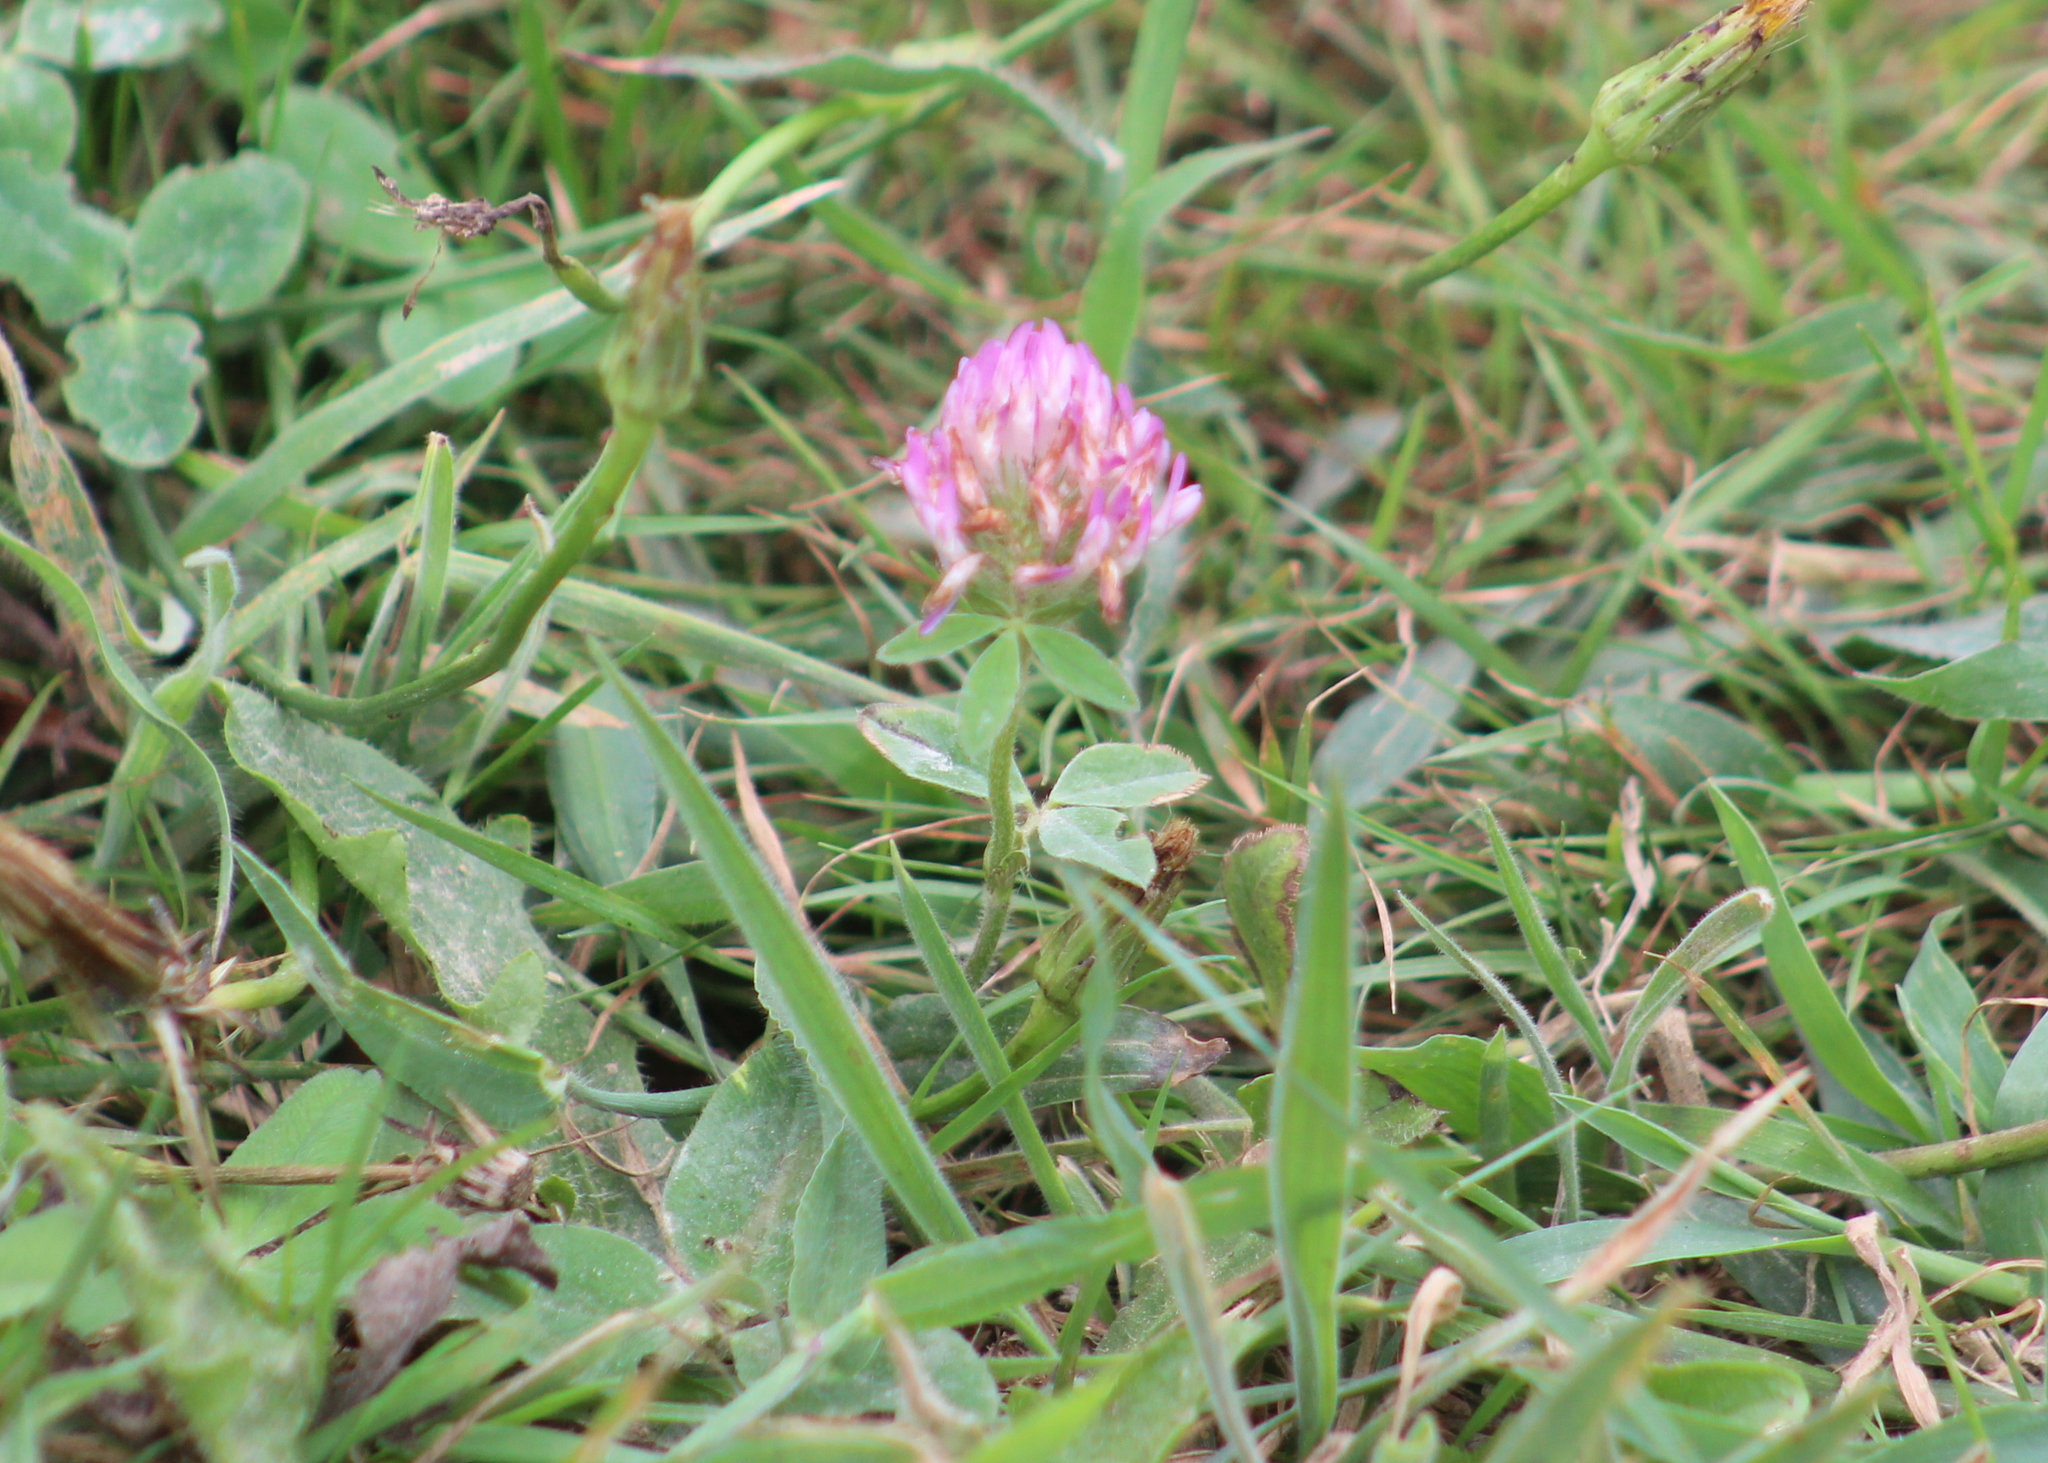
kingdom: Plantae
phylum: Tracheophyta
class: Magnoliopsida
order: Fabales
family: Fabaceae
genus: Trifolium
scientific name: Trifolium pratense
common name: Red clover
